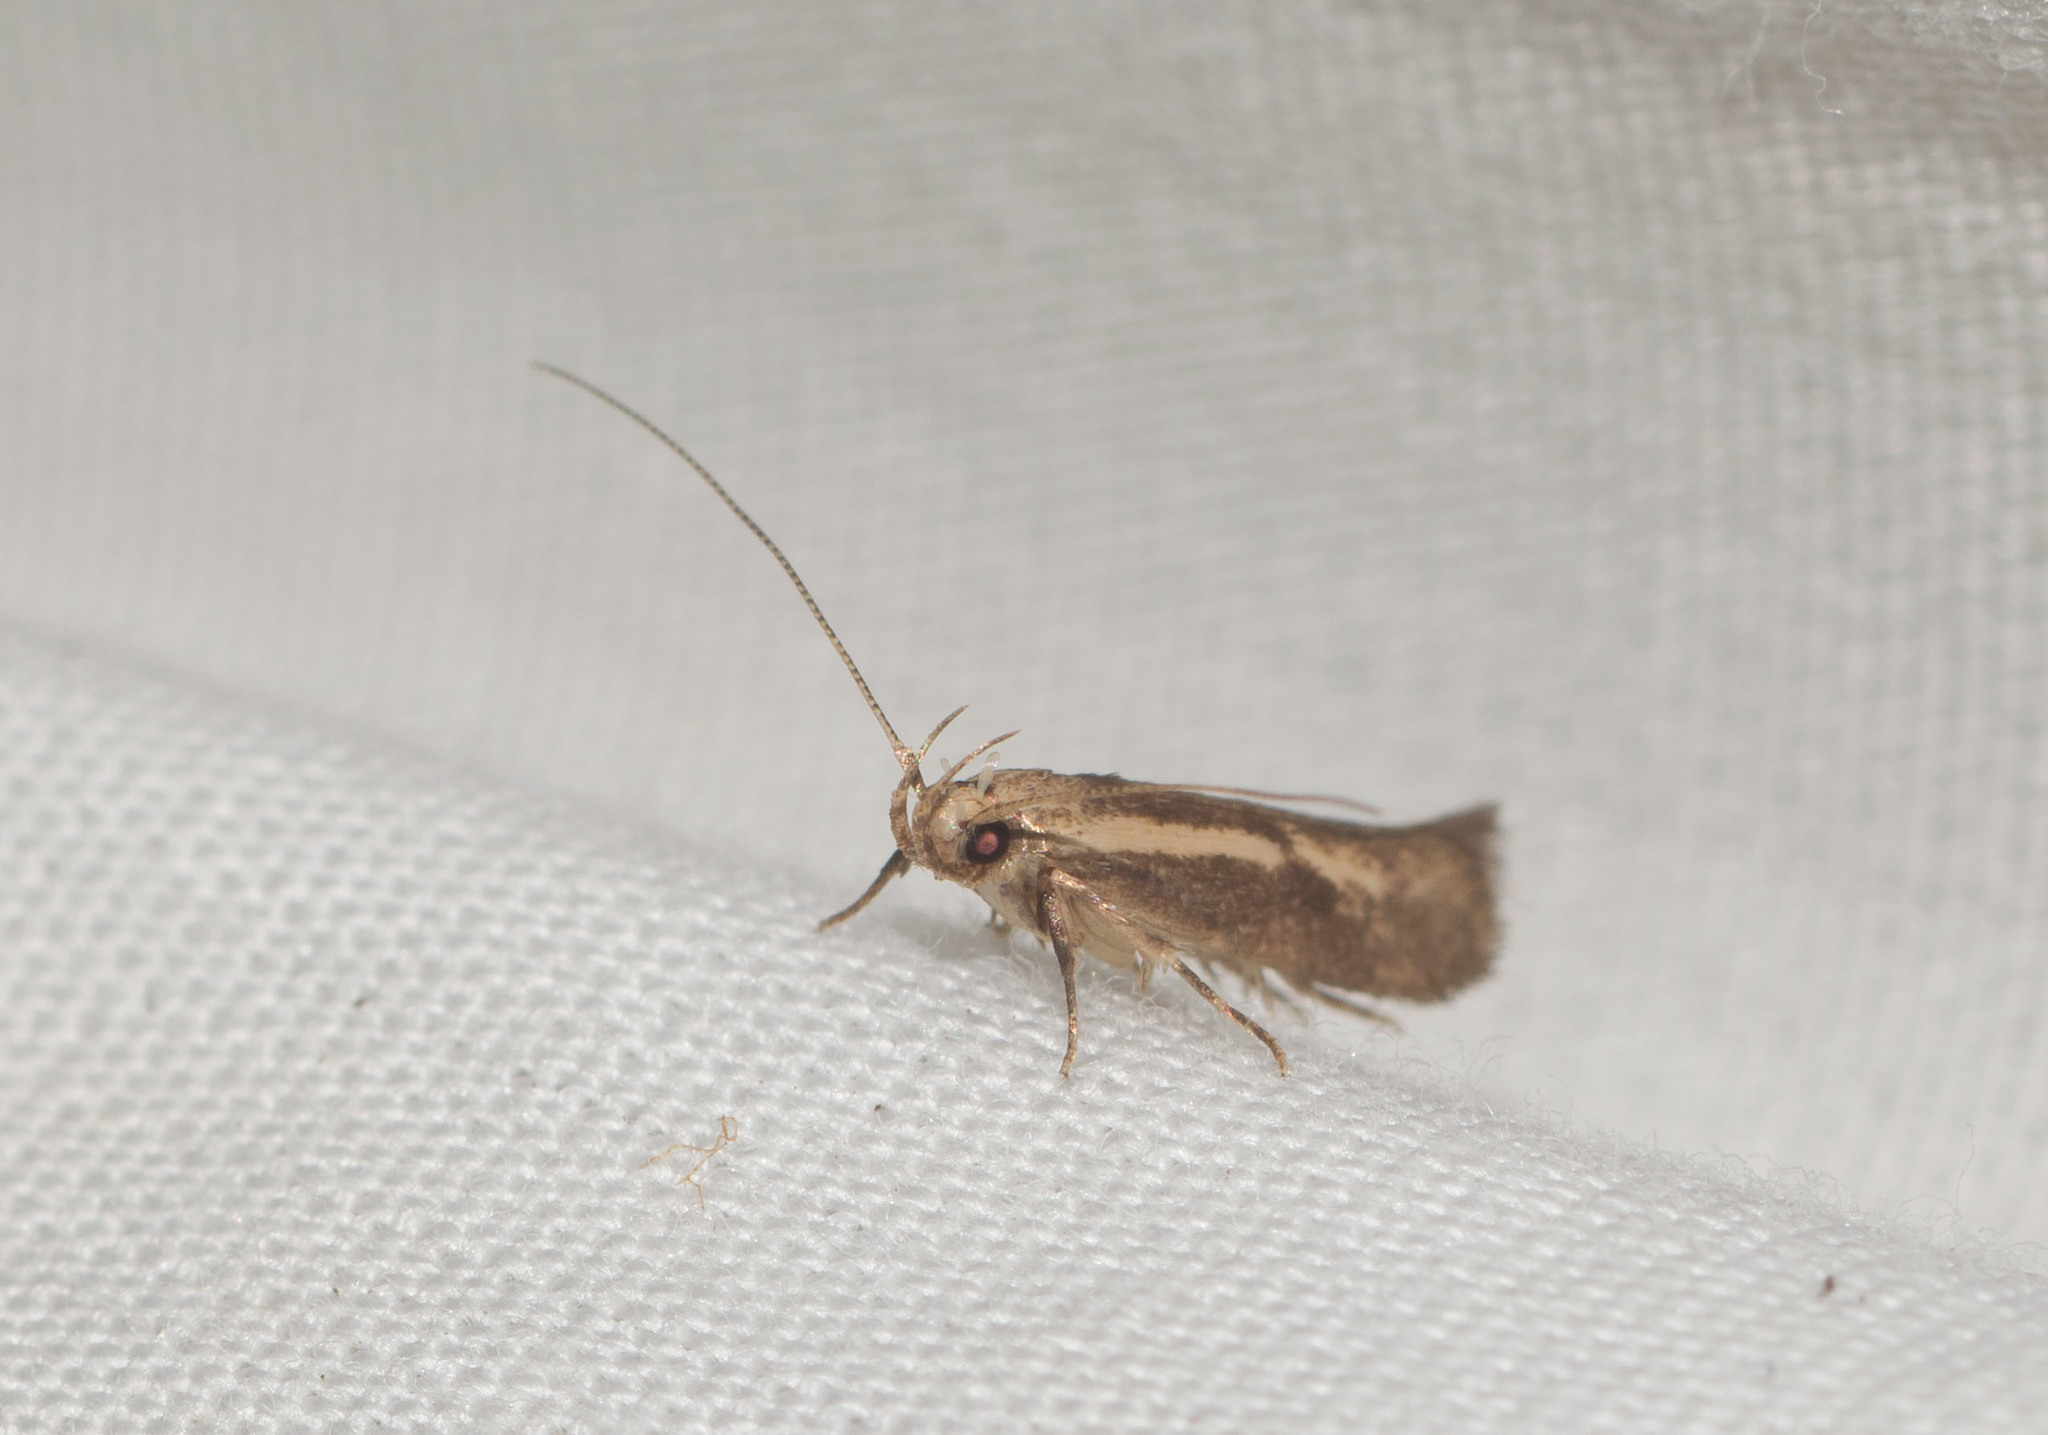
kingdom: Animalia
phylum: Arthropoda
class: Insecta
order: Lepidoptera
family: Cosmopterigidae
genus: Hyposmochoma
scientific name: Hyposmochoma mesorectis
